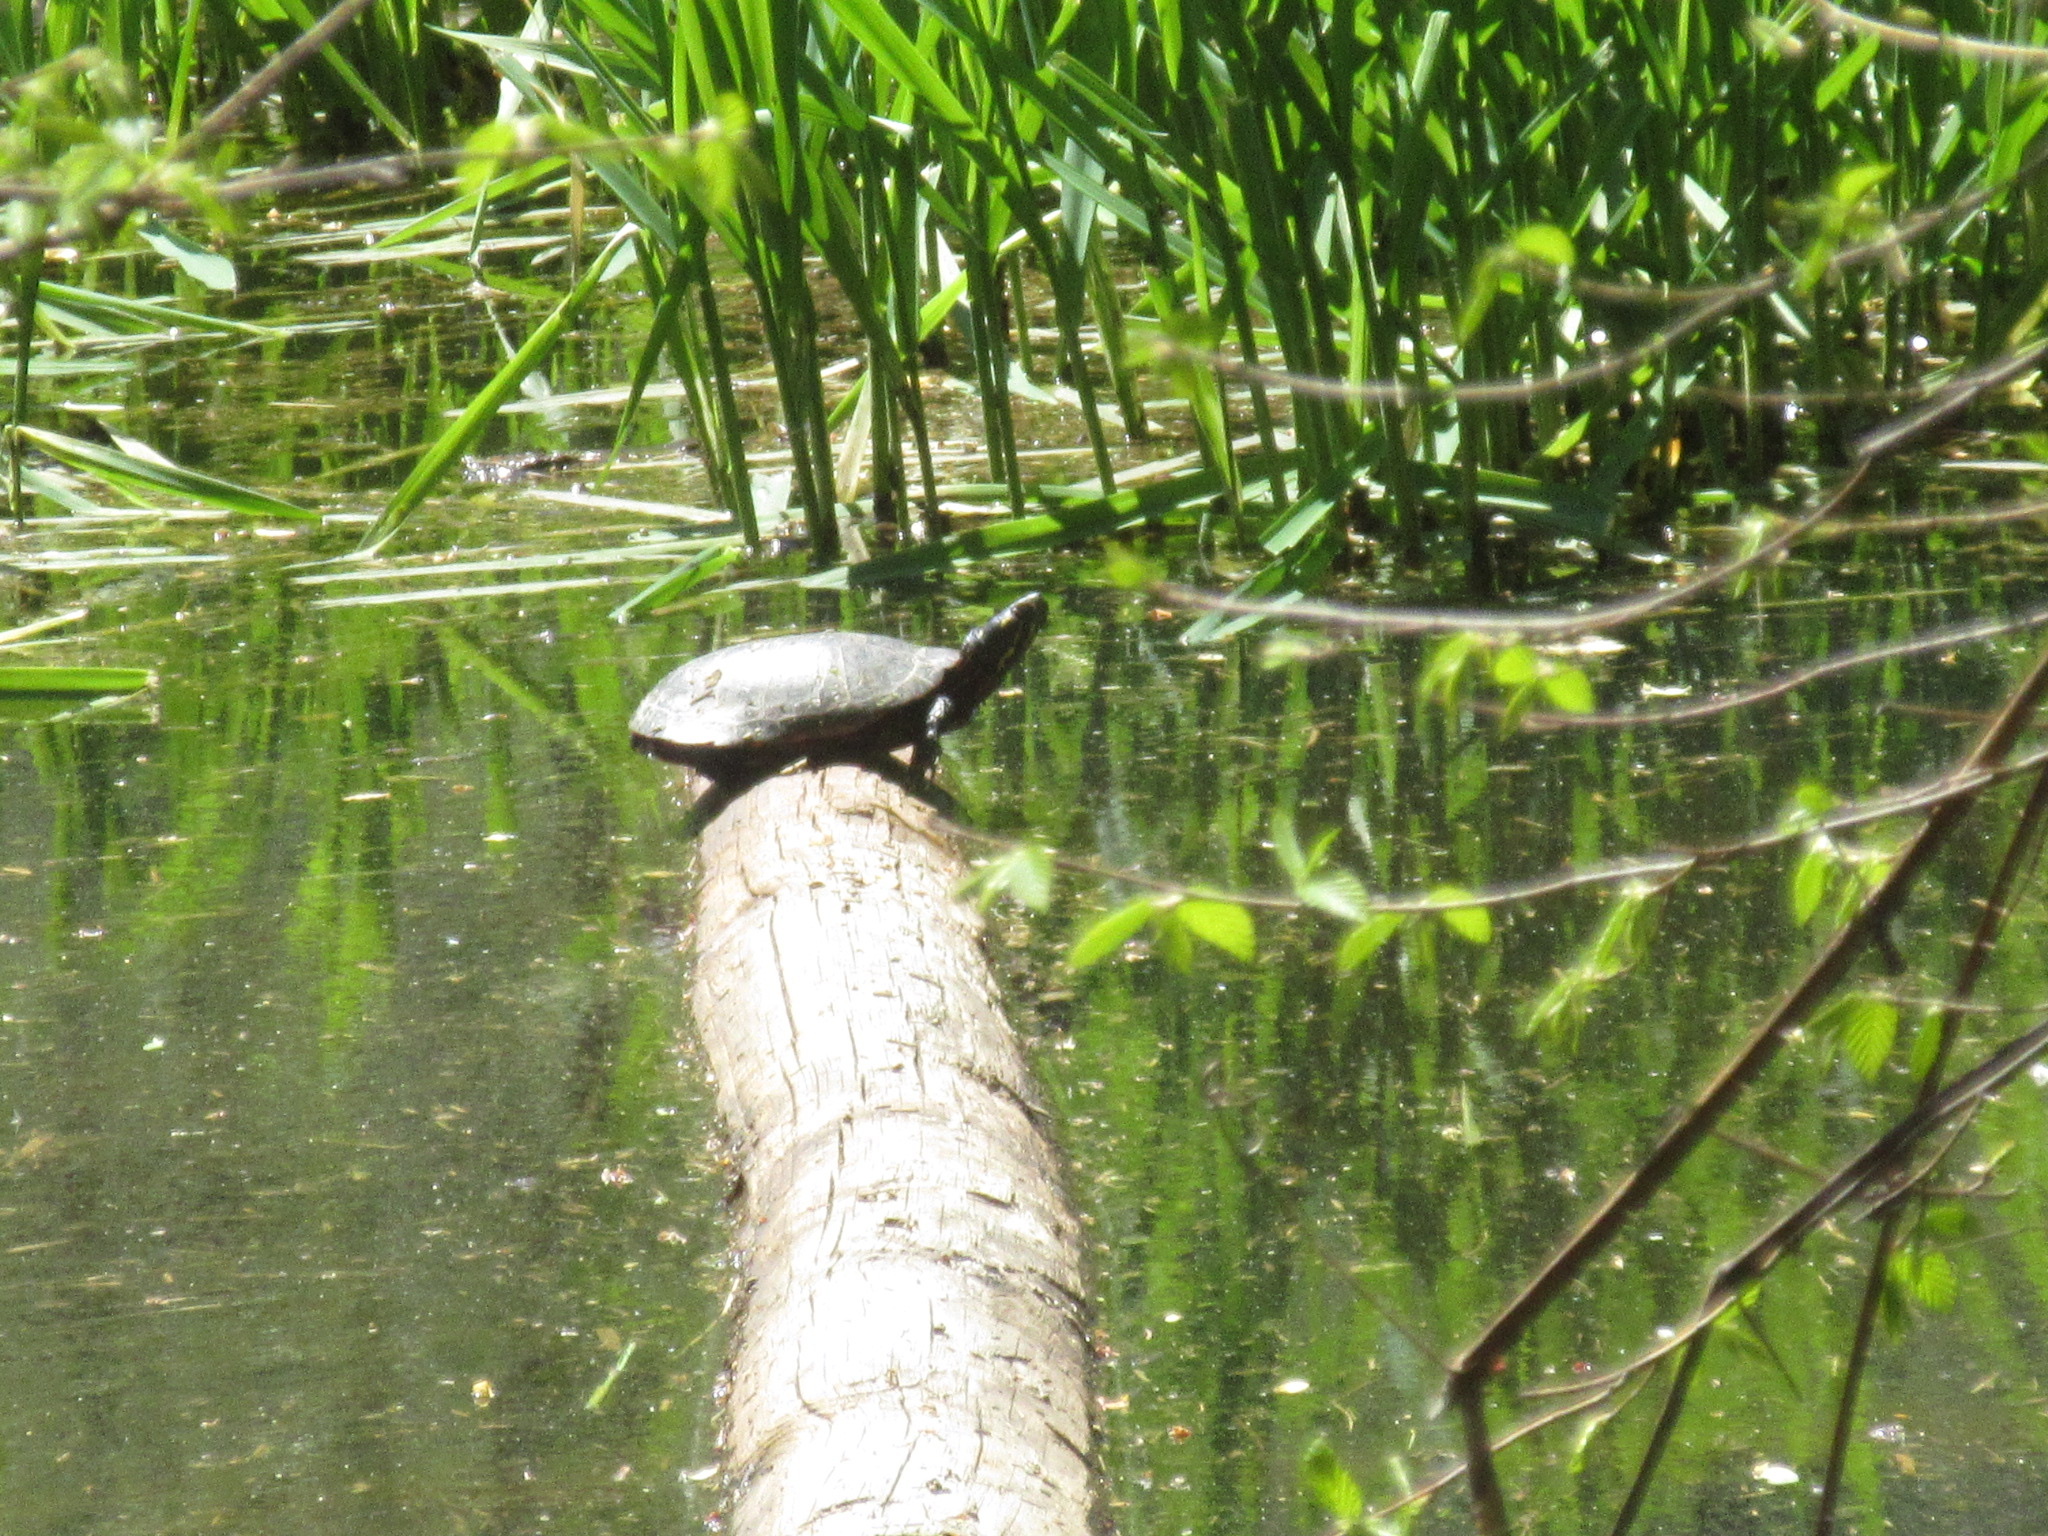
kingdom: Animalia
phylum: Chordata
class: Testudines
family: Emydidae
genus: Chrysemys
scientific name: Chrysemys picta
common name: Painted turtle
